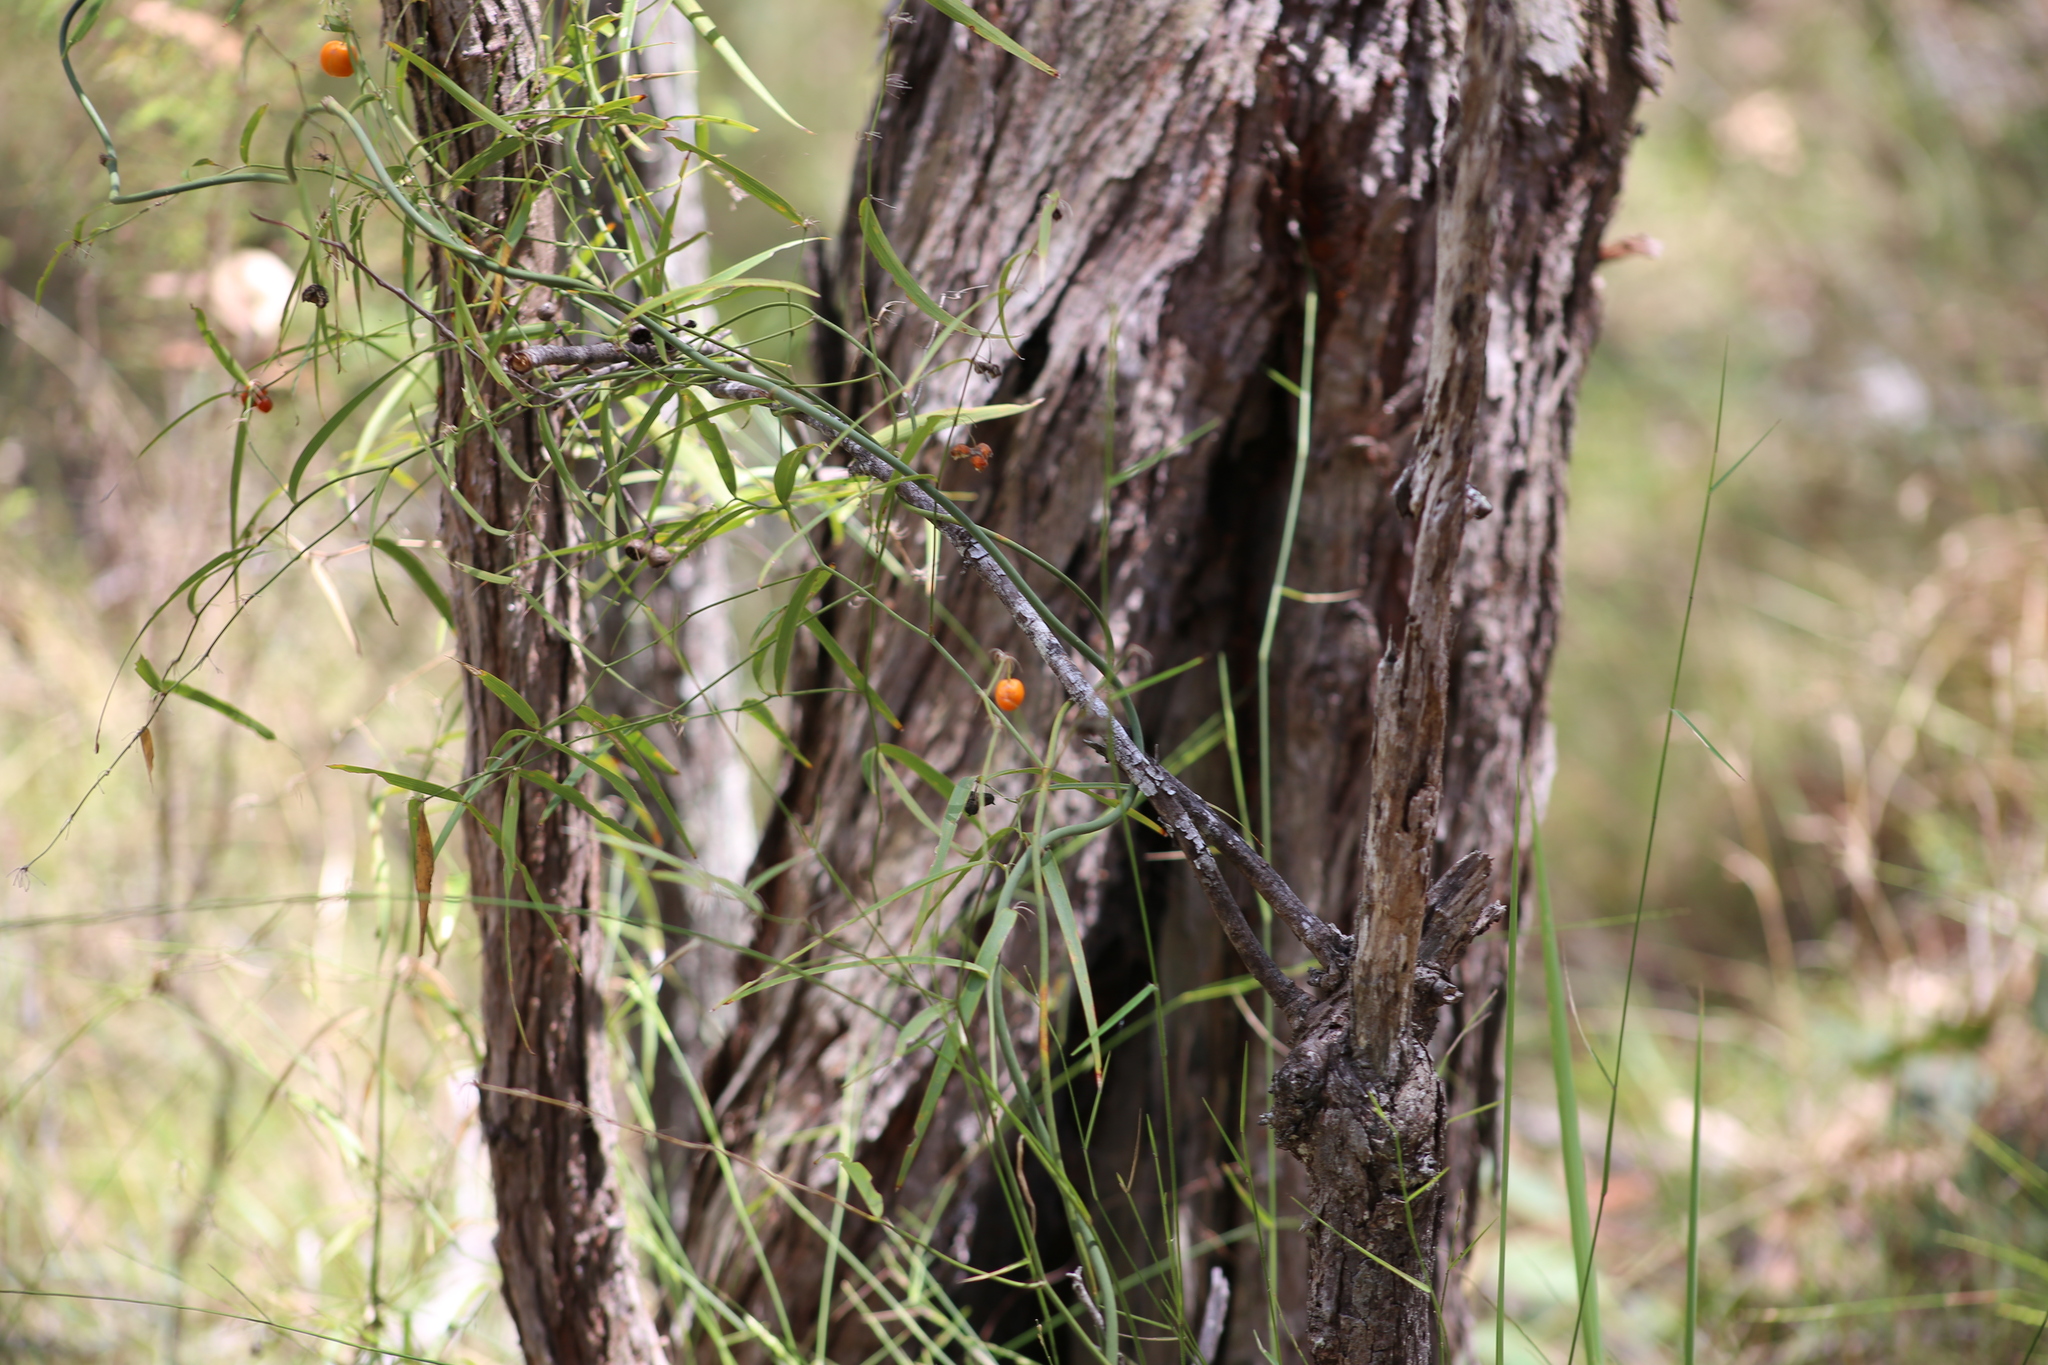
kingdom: Plantae
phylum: Tracheophyta
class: Liliopsida
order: Asparagales
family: Asparagaceae
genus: Eustrephus
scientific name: Eustrephus latifolius
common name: Orangevine
